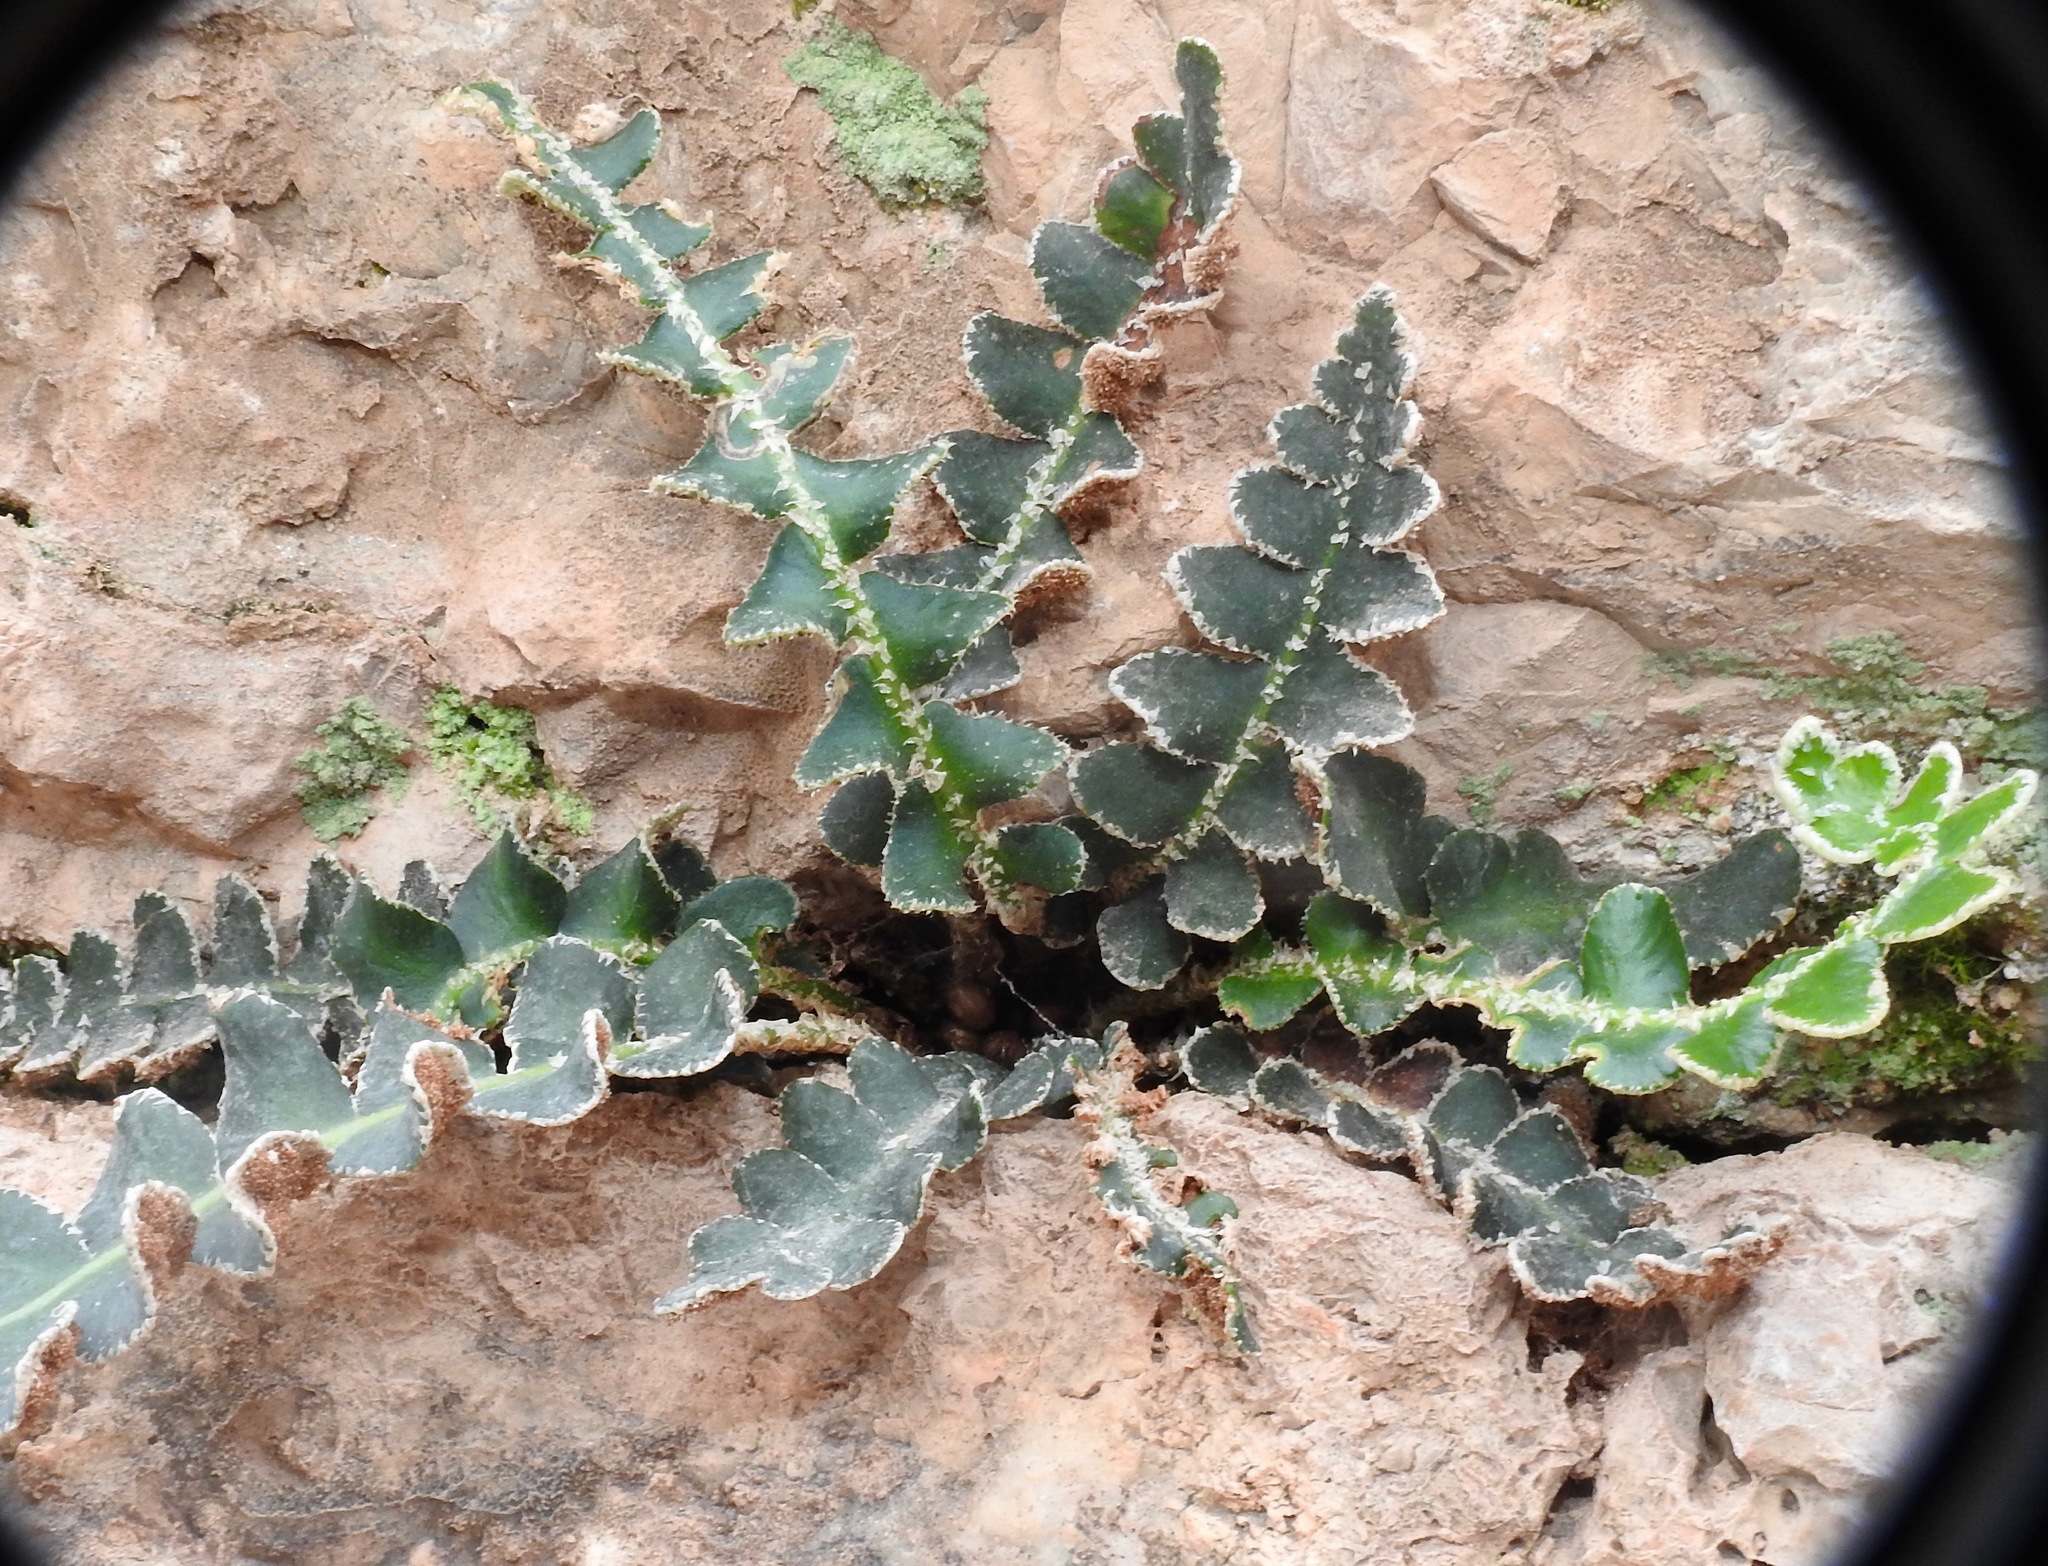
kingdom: Plantae
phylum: Tracheophyta
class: Polypodiopsida
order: Polypodiales
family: Aspleniaceae
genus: Asplenium
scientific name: Asplenium ceterach
